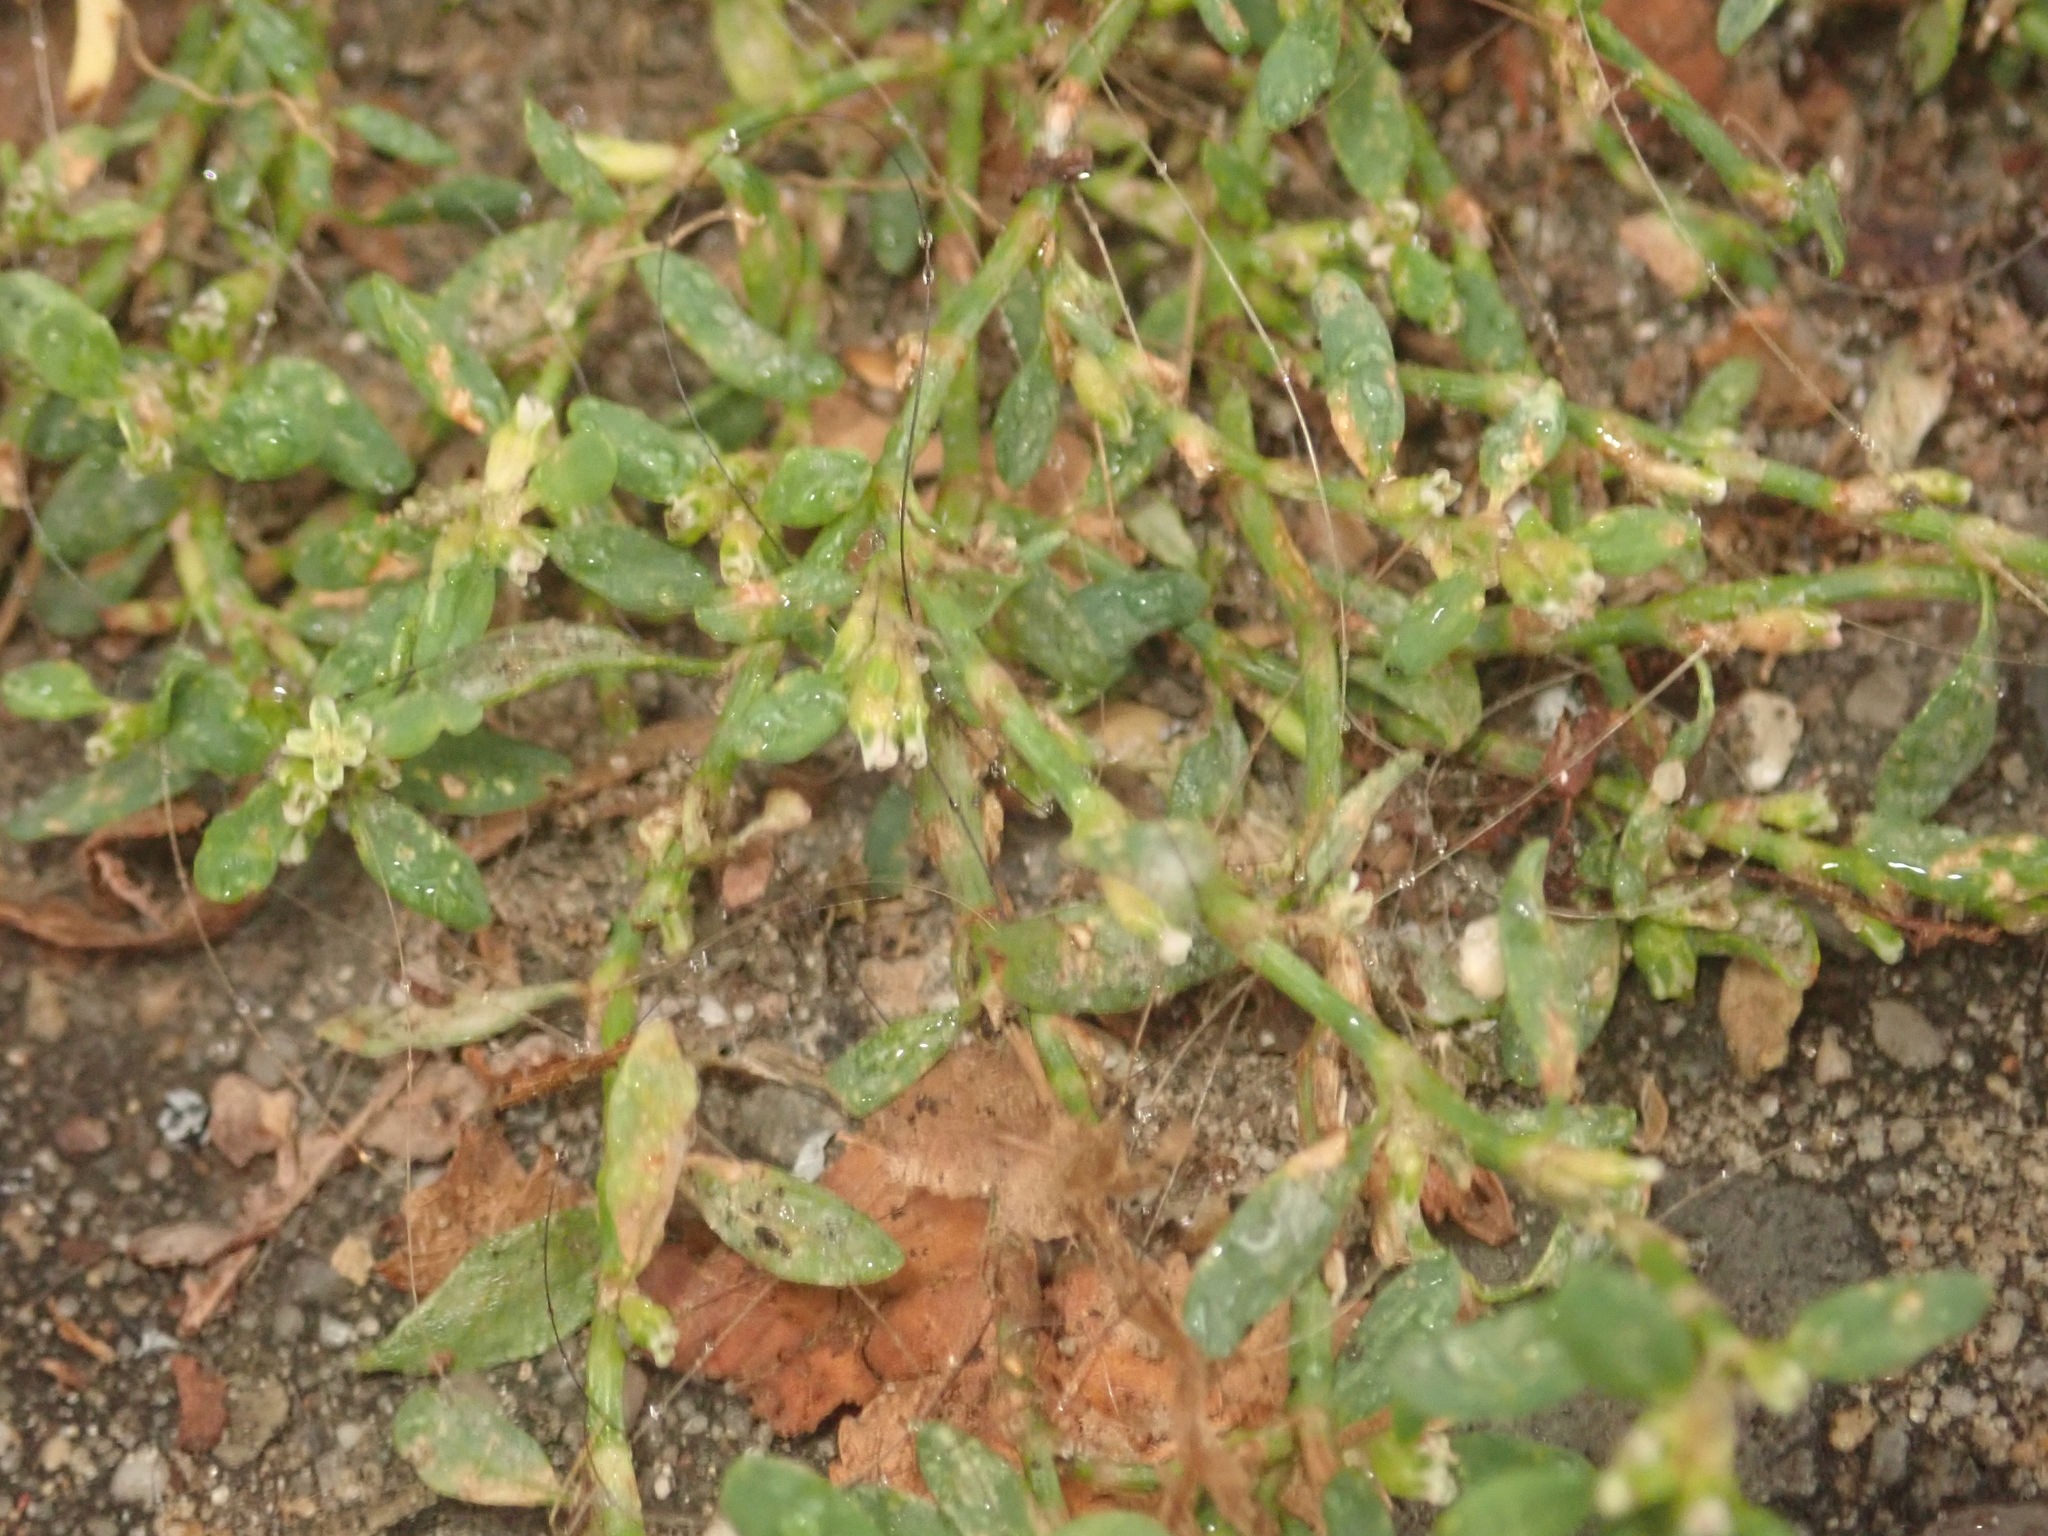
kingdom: Plantae
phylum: Tracheophyta
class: Magnoliopsida
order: Caryophyllales
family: Polygonaceae
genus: Polygonum
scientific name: Polygonum aviculare
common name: Prostrate knotweed
